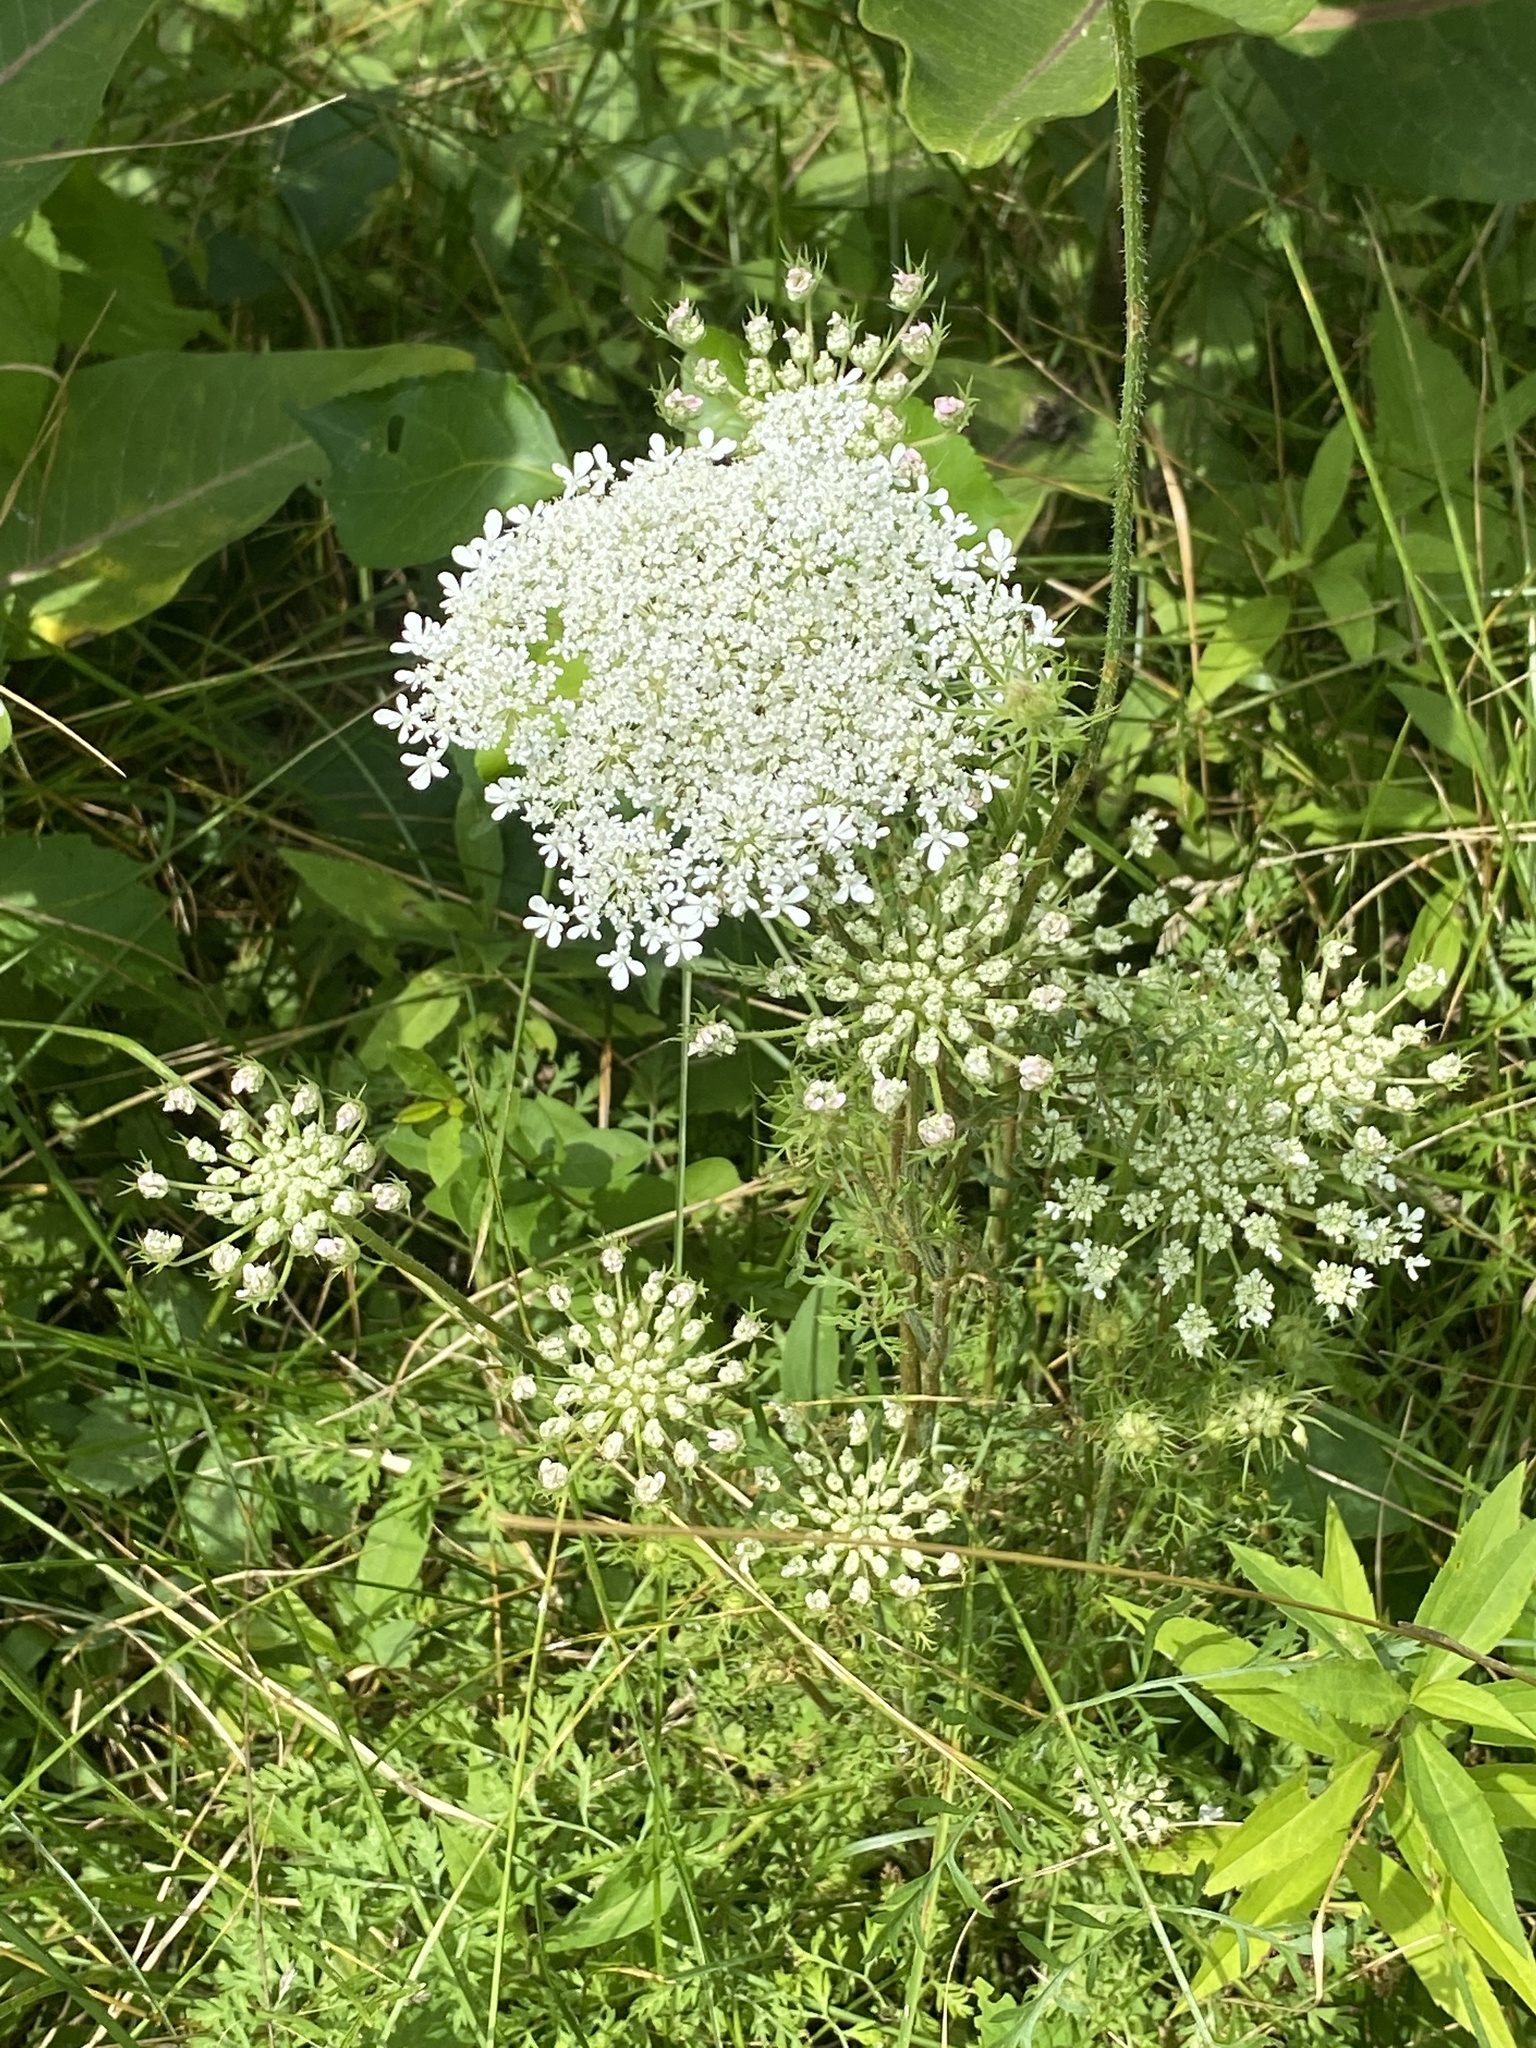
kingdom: Plantae
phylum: Tracheophyta
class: Magnoliopsida
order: Apiales
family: Apiaceae
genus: Daucus
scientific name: Daucus carota
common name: Wild carrot
